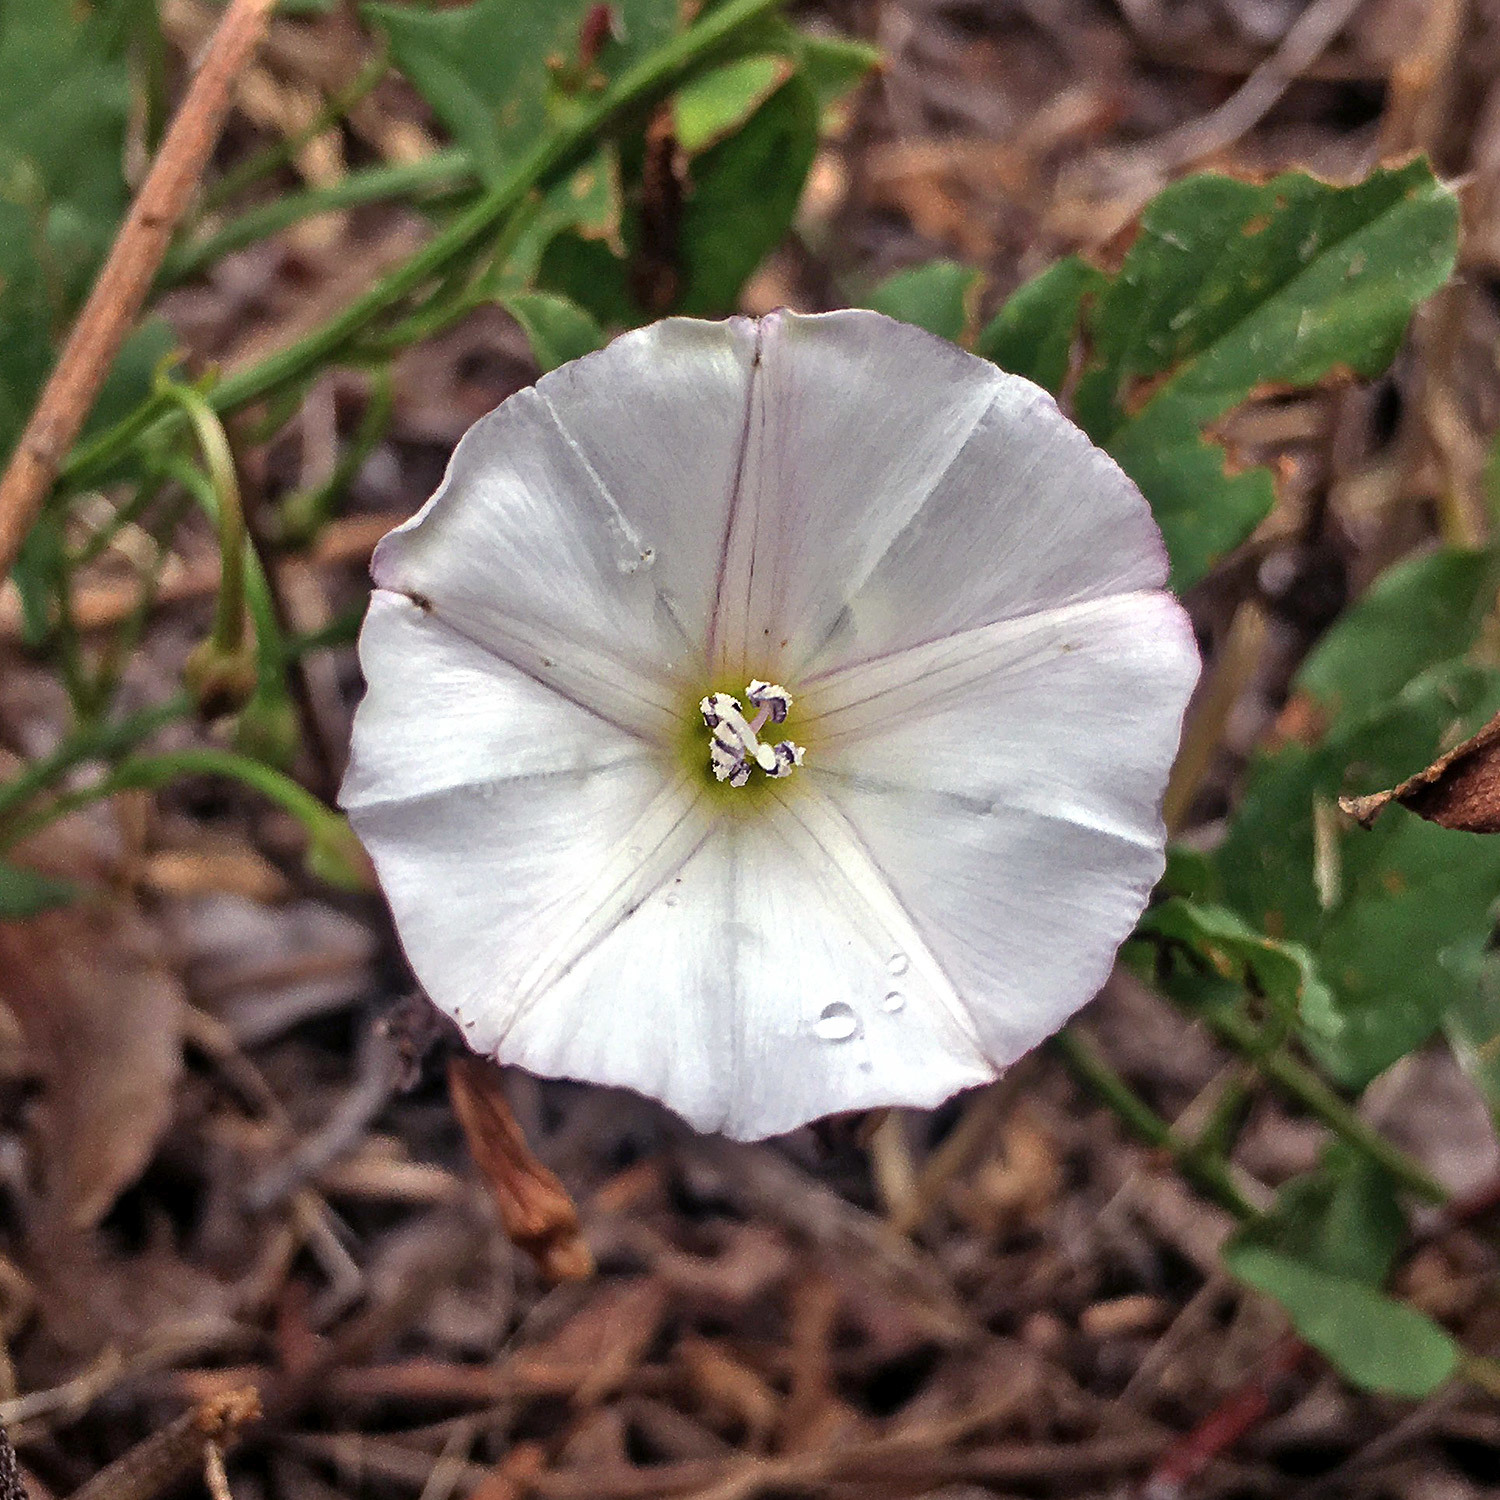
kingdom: Plantae
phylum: Tracheophyta
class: Magnoliopsida
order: Solanales
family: Convolvulaceae
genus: Convolvulus
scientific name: Convolvulus arvensis
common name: Field bindweed
